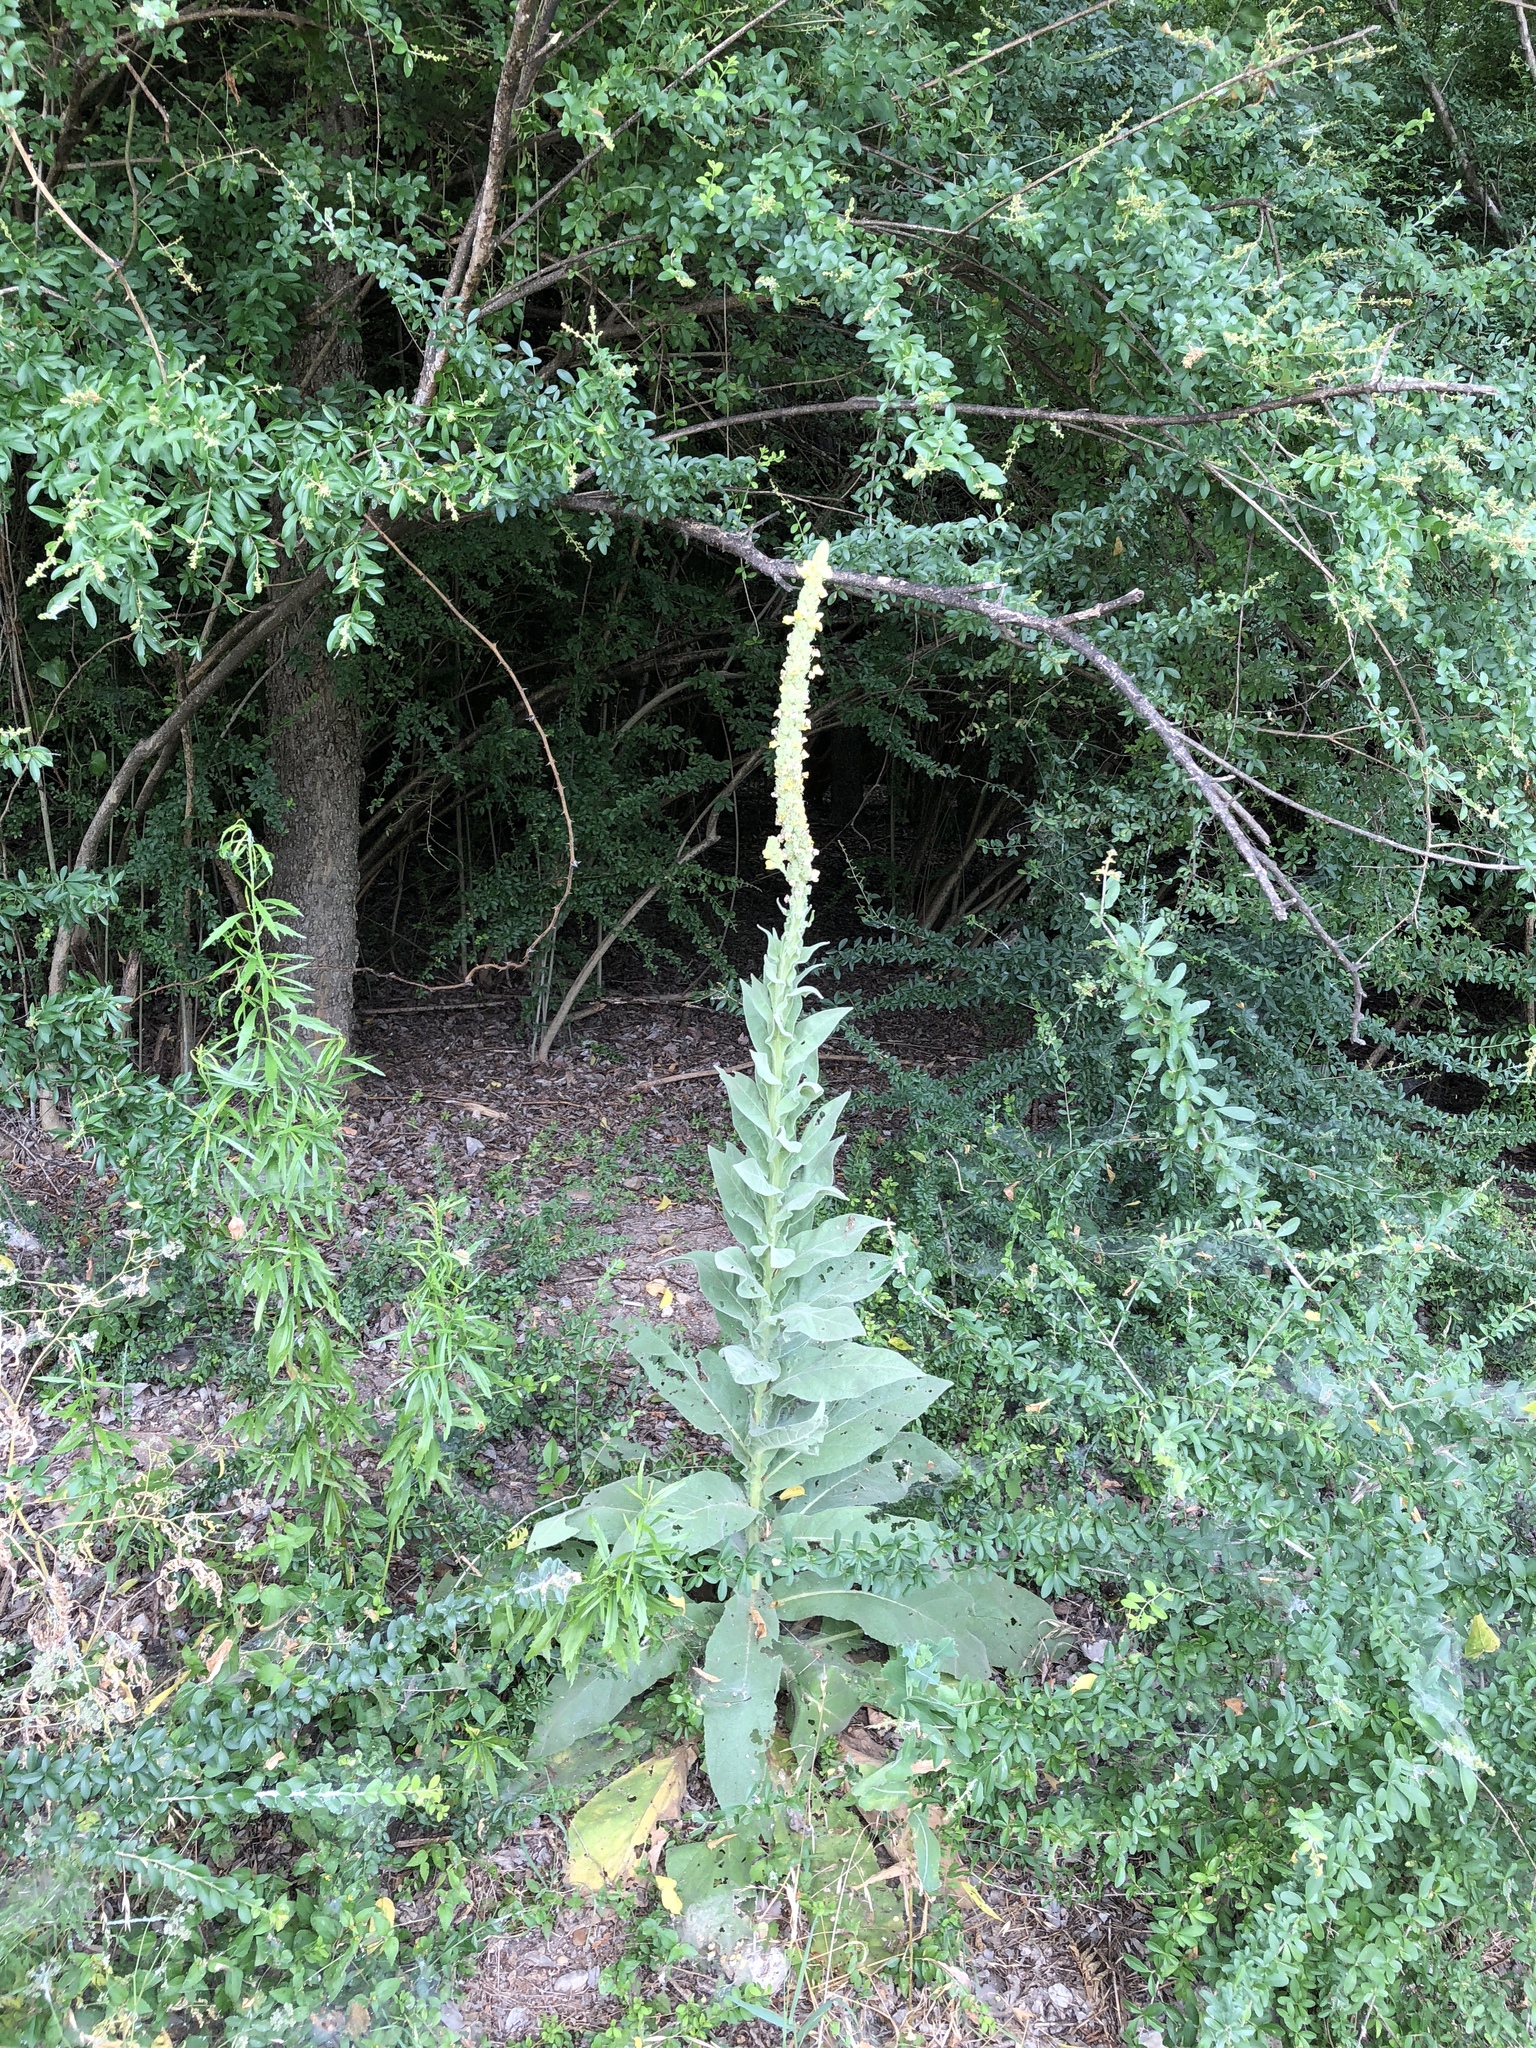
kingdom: Plantae
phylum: Tracheophyta
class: Magnoliopsida
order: Lamiales
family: Scrophulariaceae
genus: Verbascum
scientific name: Verbascum thapsus
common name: Common mullein
